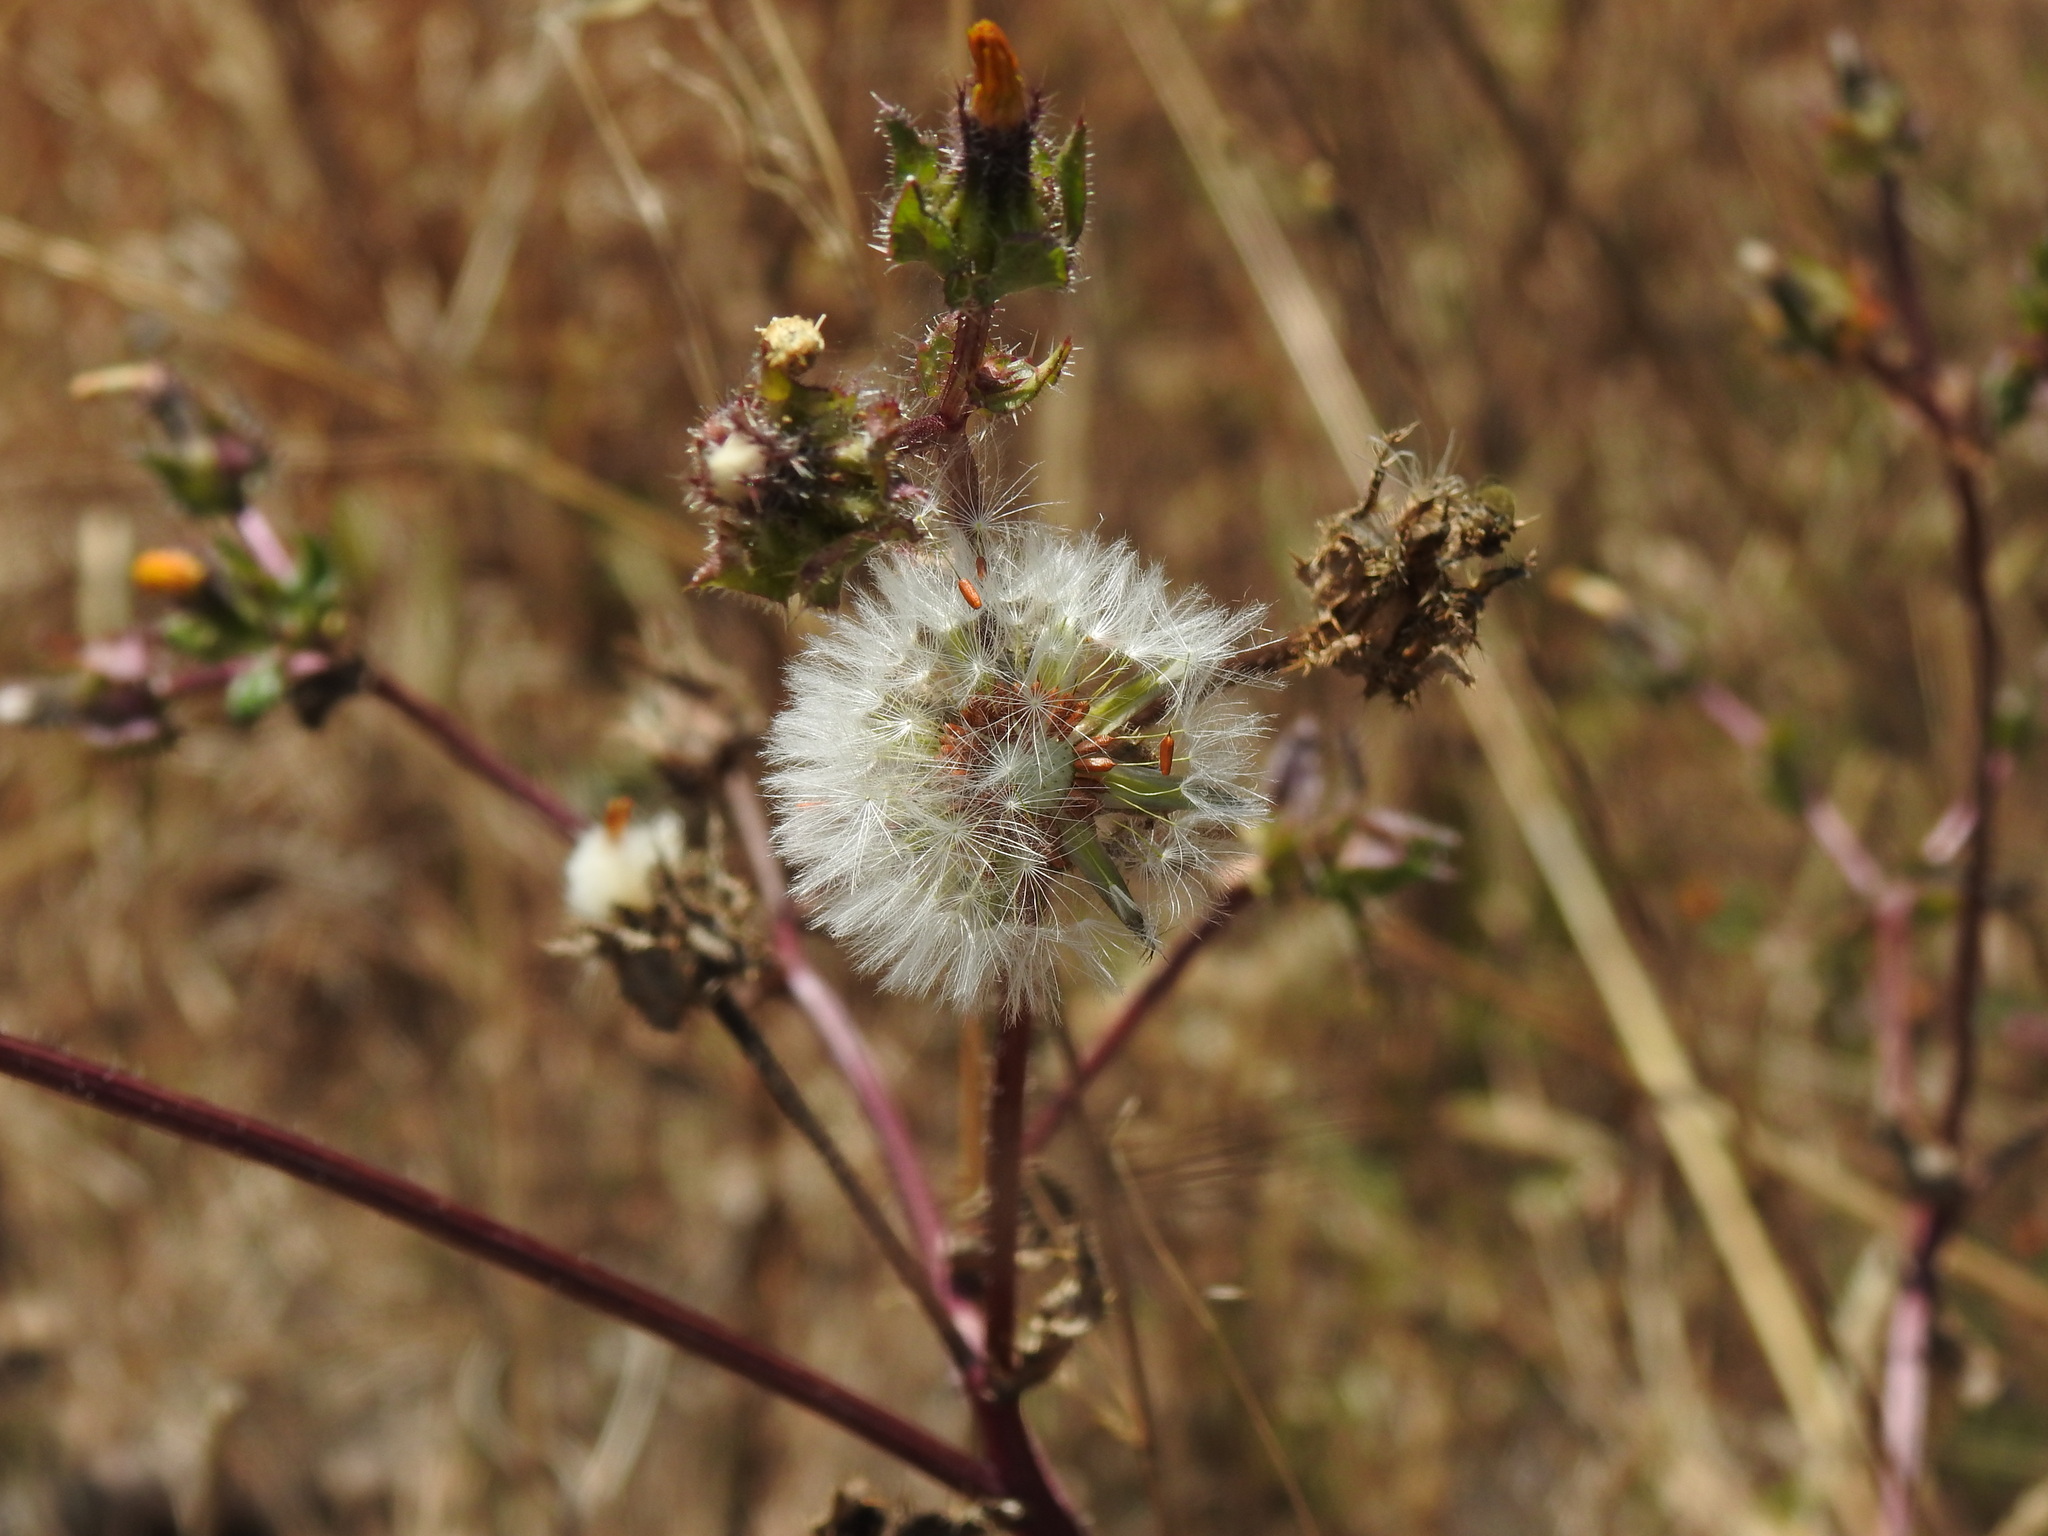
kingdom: Plantae
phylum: Tracheophyta
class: Magnoliopsida
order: Asterales
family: Asteraceae
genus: Helminthotheca
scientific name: Helminthotheca echioides
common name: Ox-tongue
